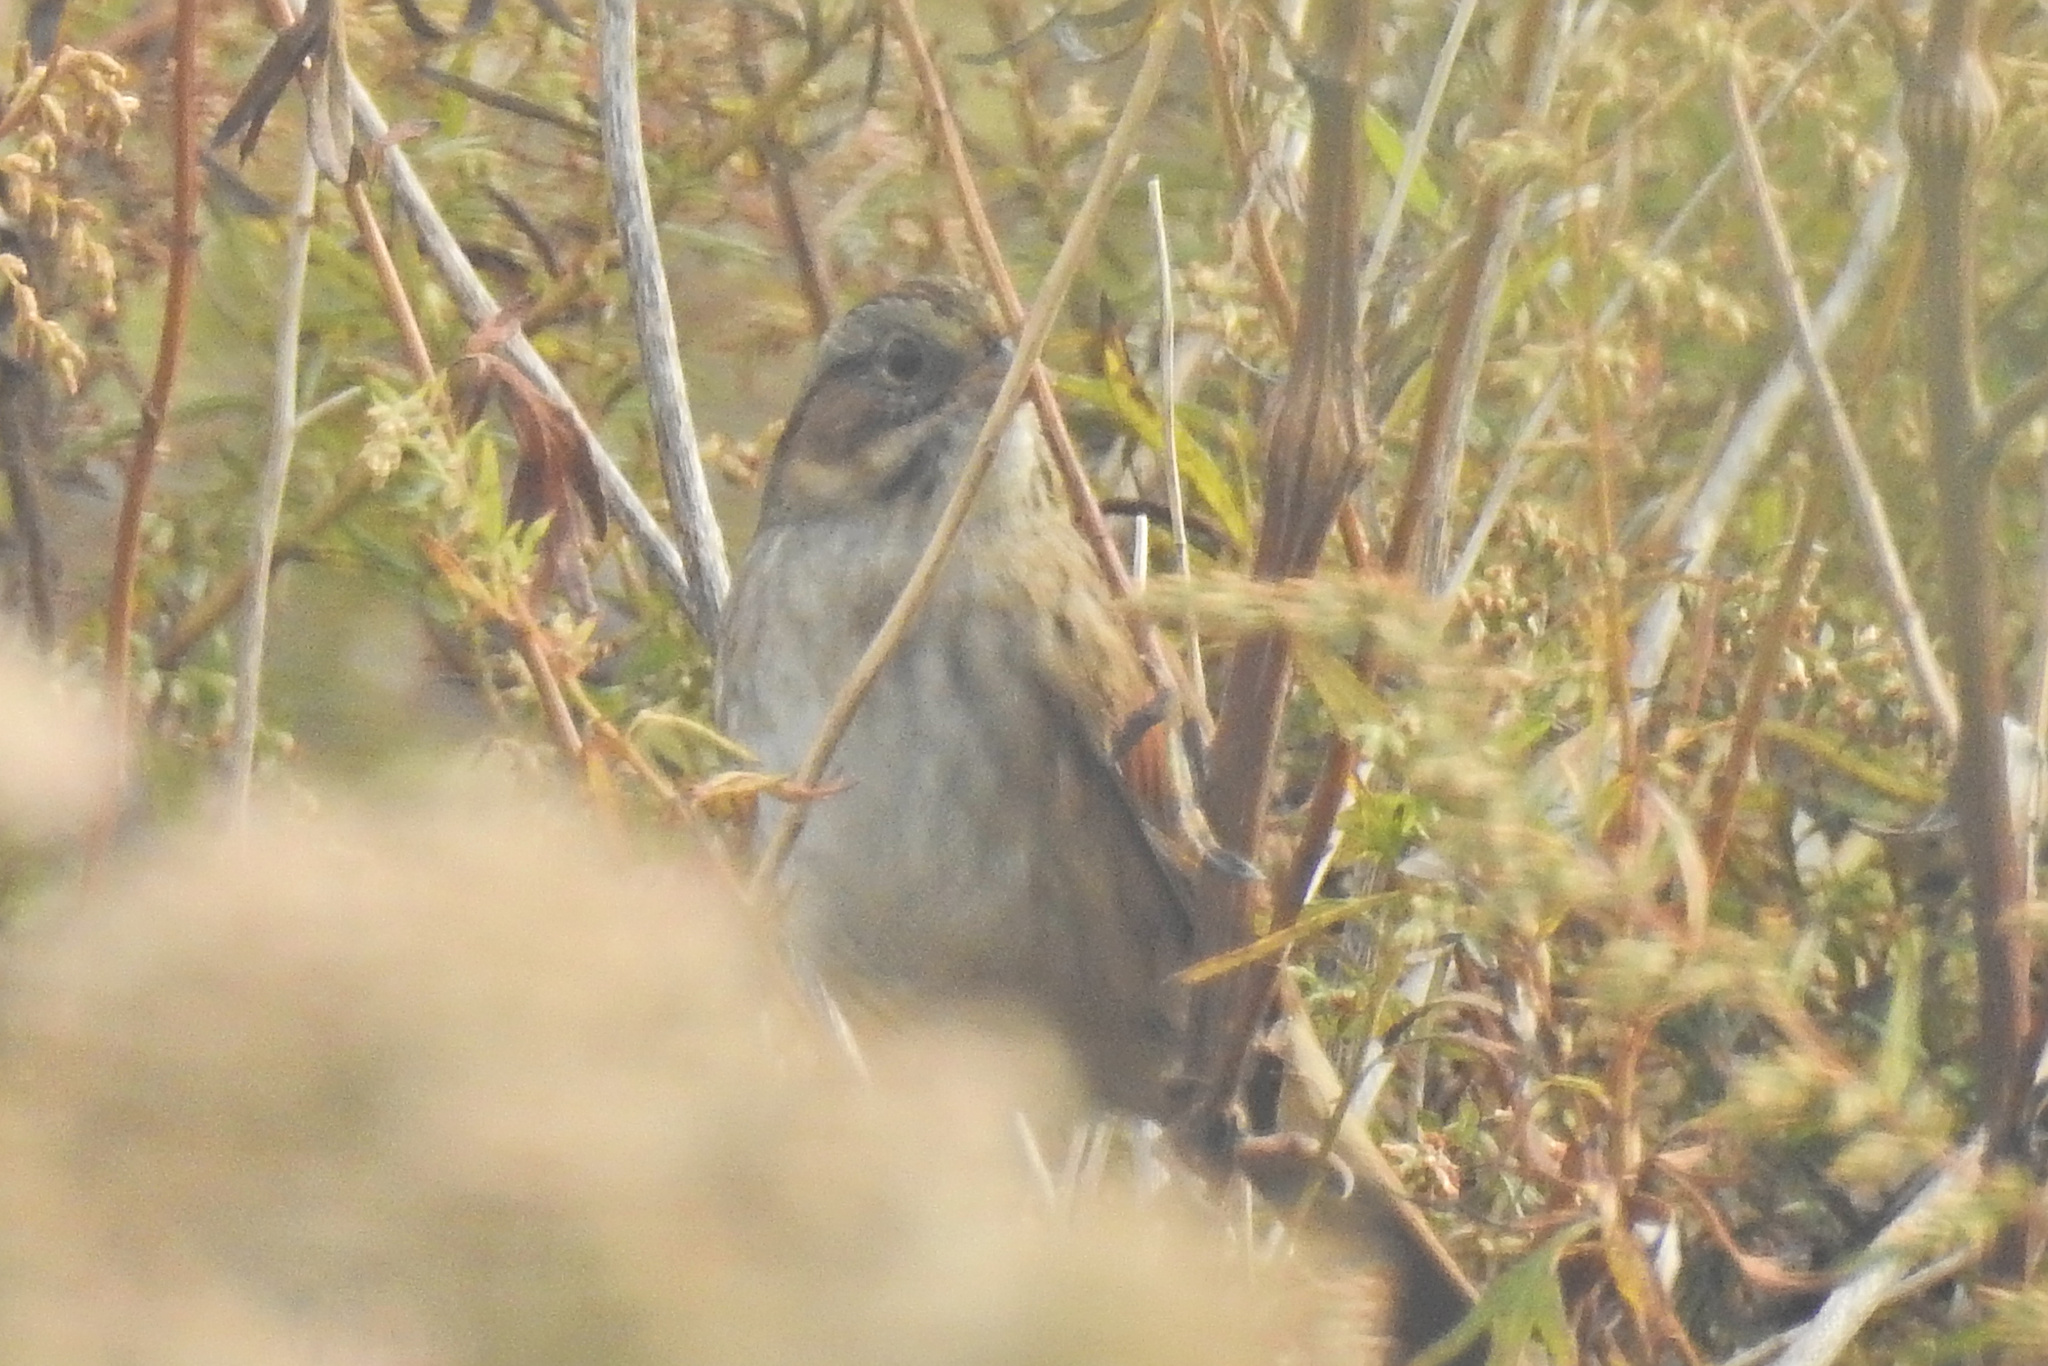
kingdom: Animalia
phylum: Chordata
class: Aves
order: Passeriformes
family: Passerellidae
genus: Melospiza
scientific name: Melospiza georgiana
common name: Swamp sparrow
